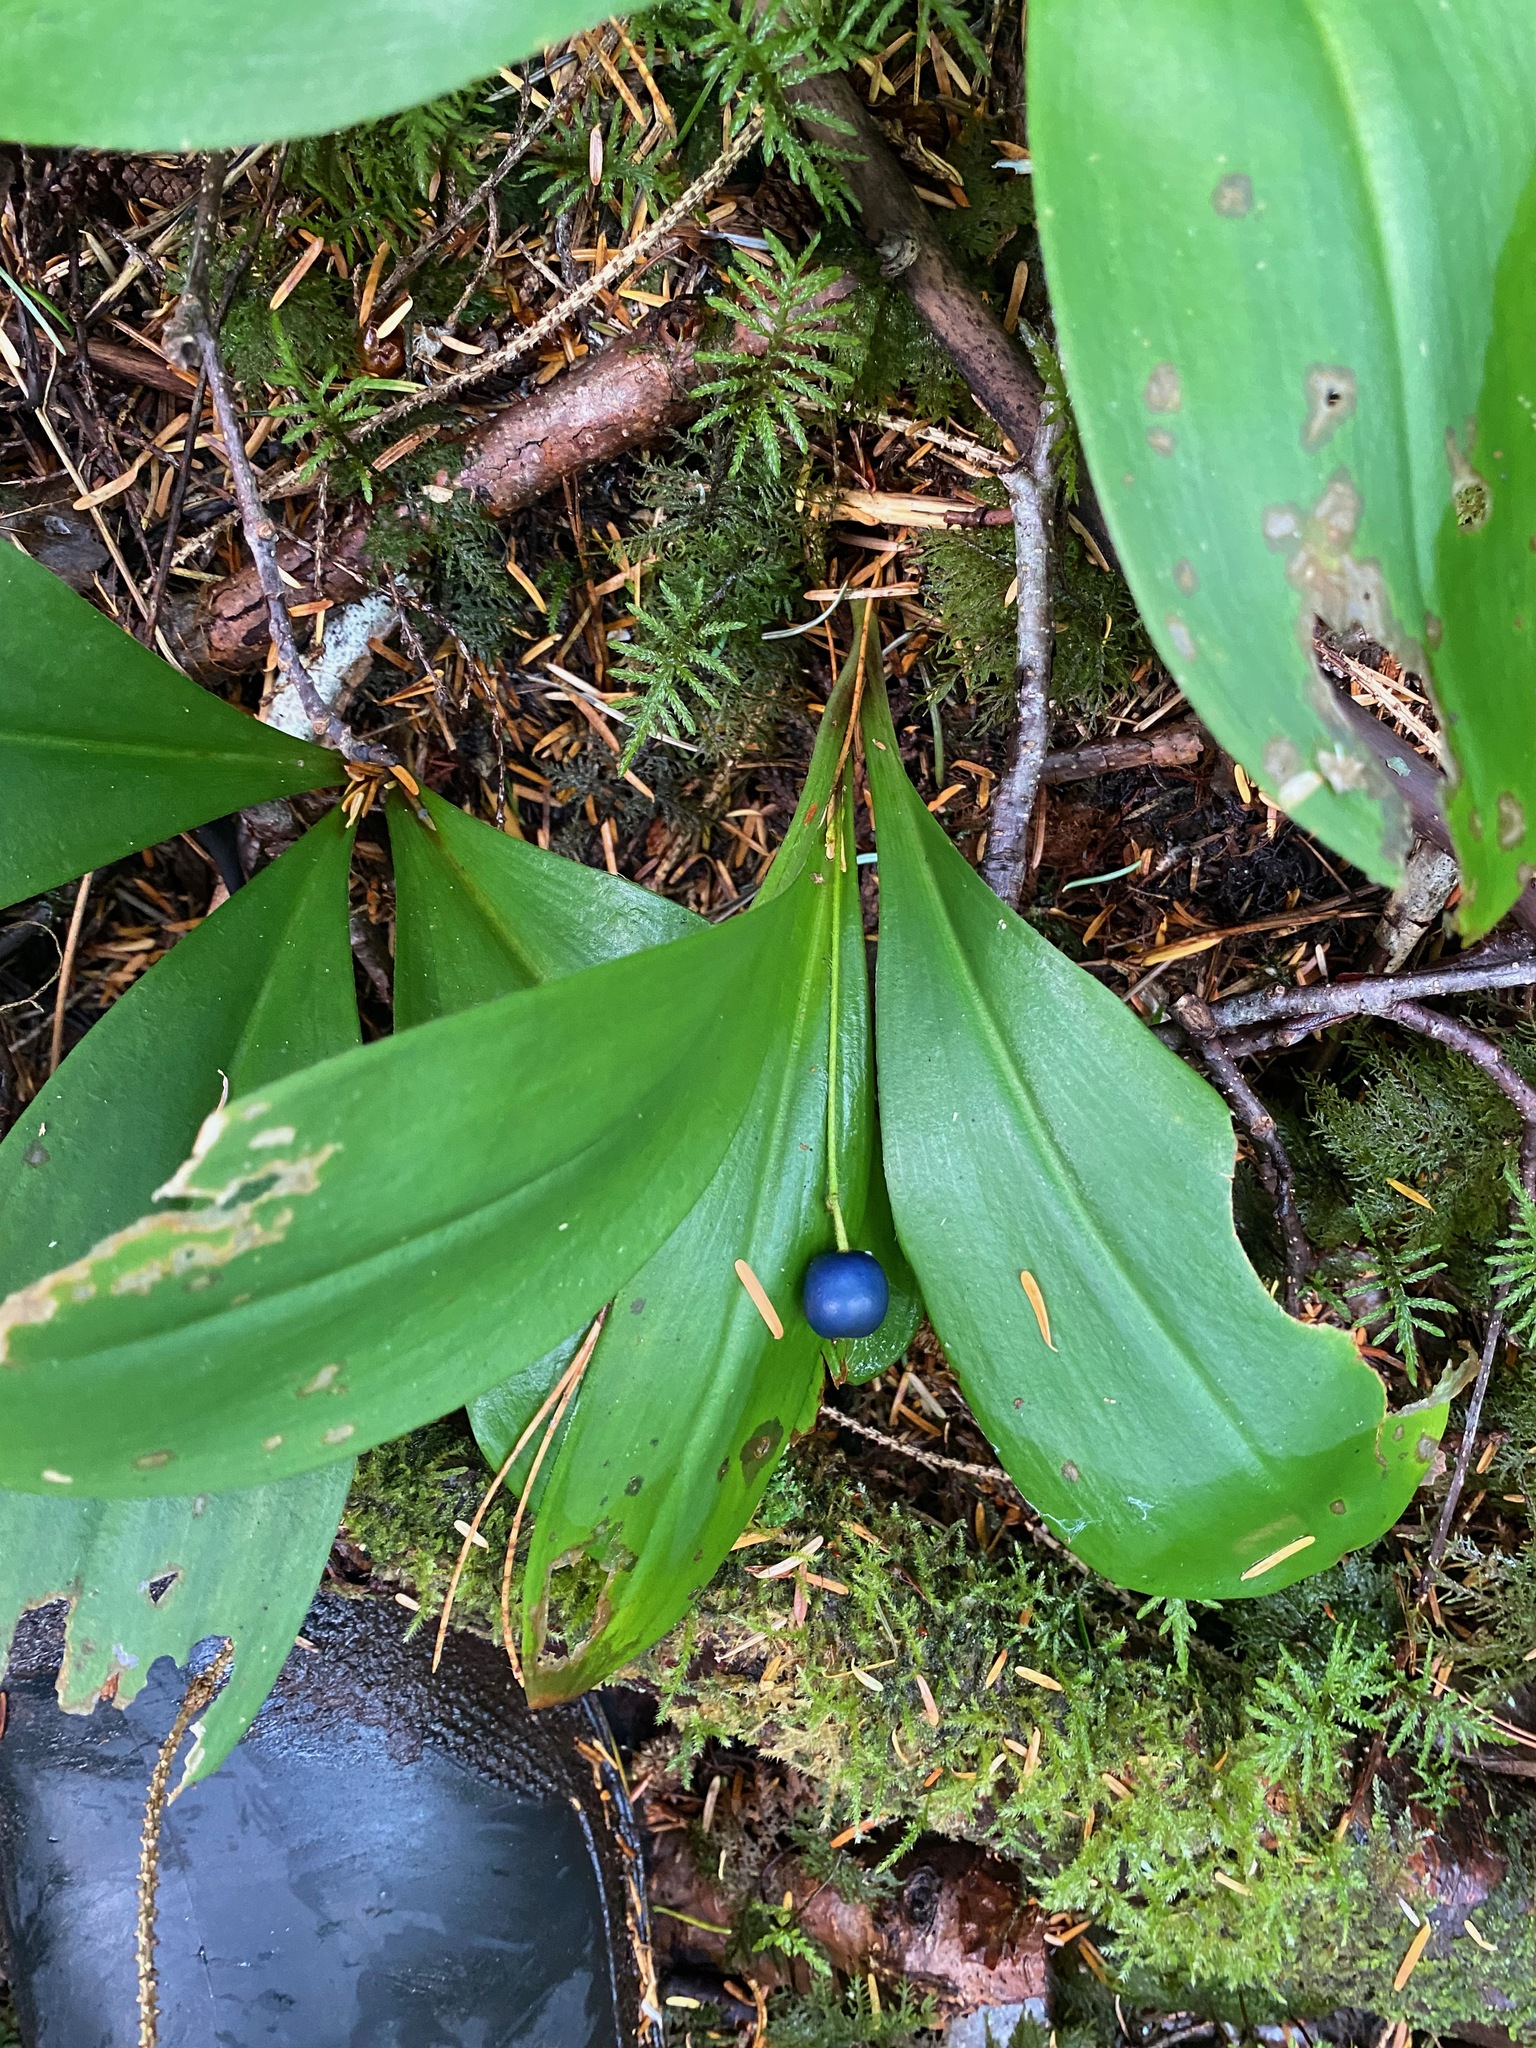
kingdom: Plantae
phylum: Tracheophyta
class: Liliopsida
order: Liliales
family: Liliaceae
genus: Clintonia
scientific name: Clintonia uniflora
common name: Queen's cup
